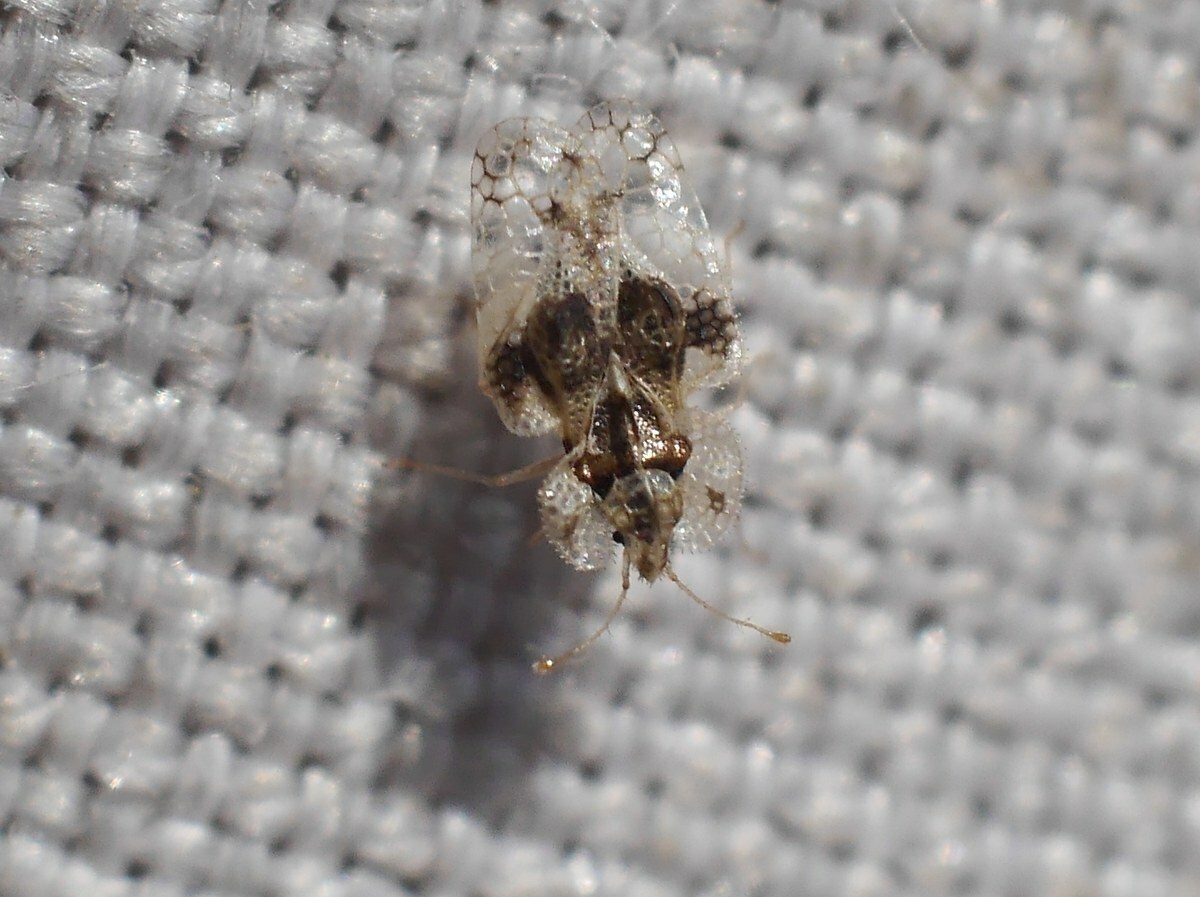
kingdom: Animalia
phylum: Arthropoda
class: Insecta
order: Hemiptera
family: Tingidae
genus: Corythucha
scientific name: Corythucha arcuata
